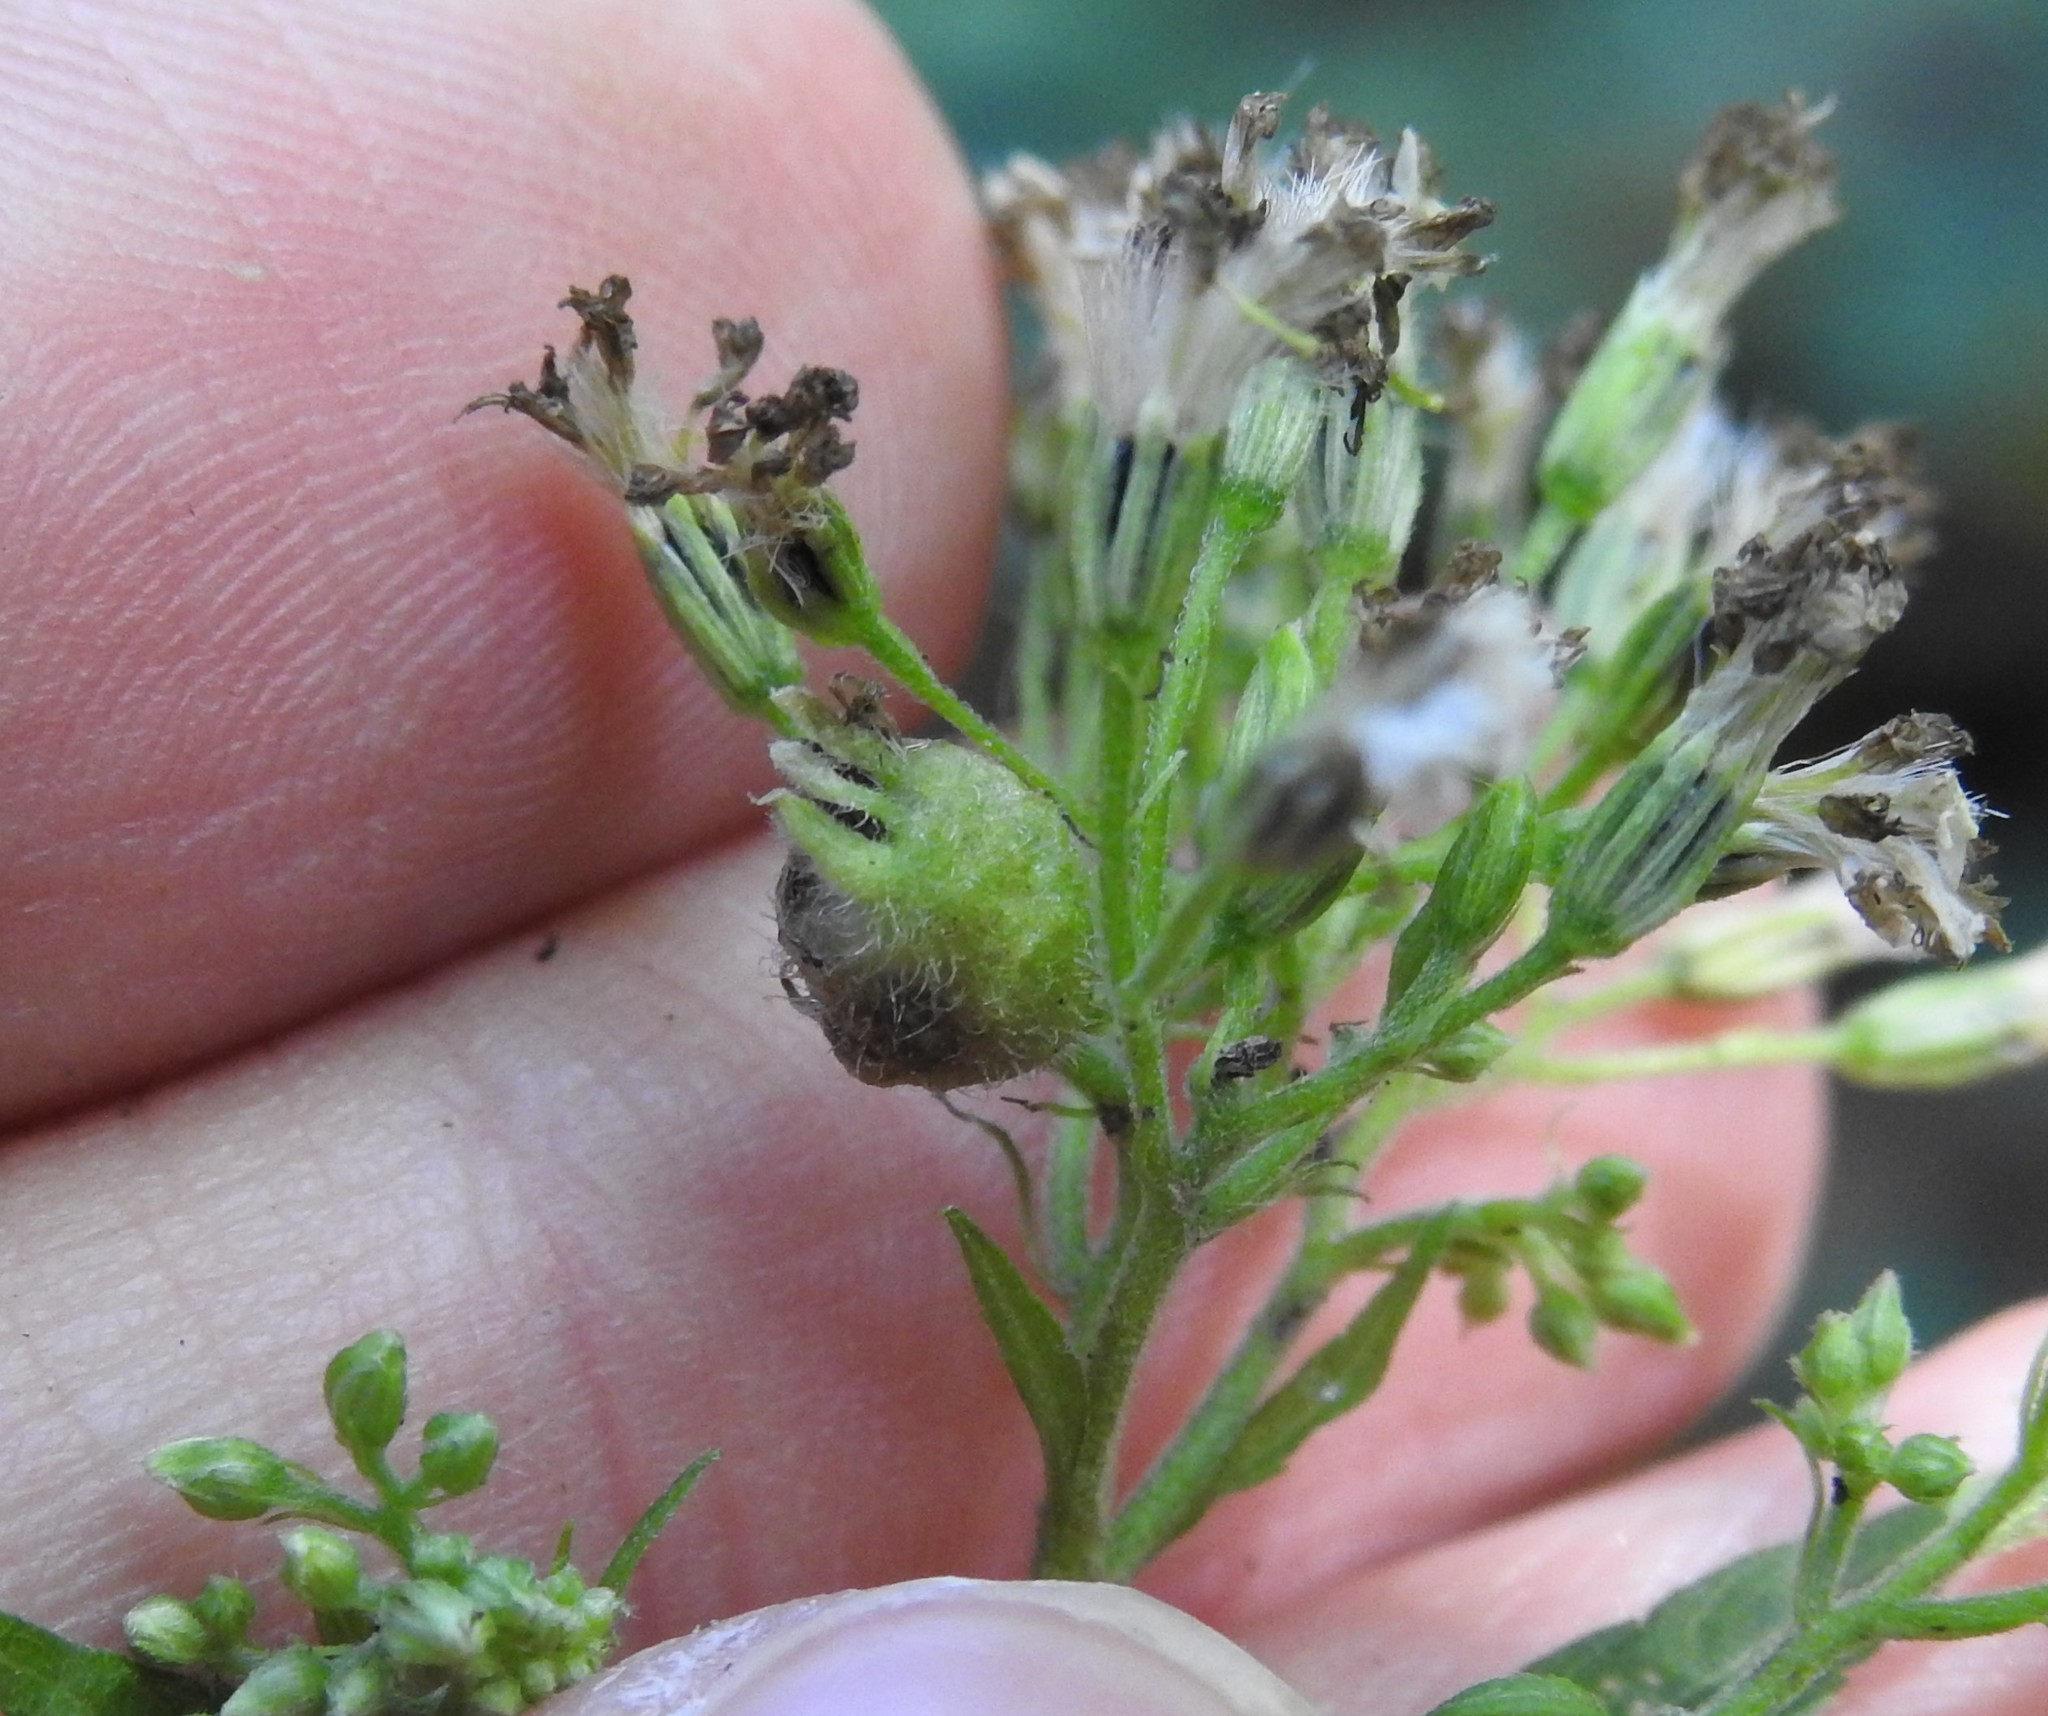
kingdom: Animalia
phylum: Arthropoda
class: Insecta
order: Diptera
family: Cecidomyiidae
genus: Schizomyia
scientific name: Schizomyia eupatoriflorae
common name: Boneset flower gall midge
